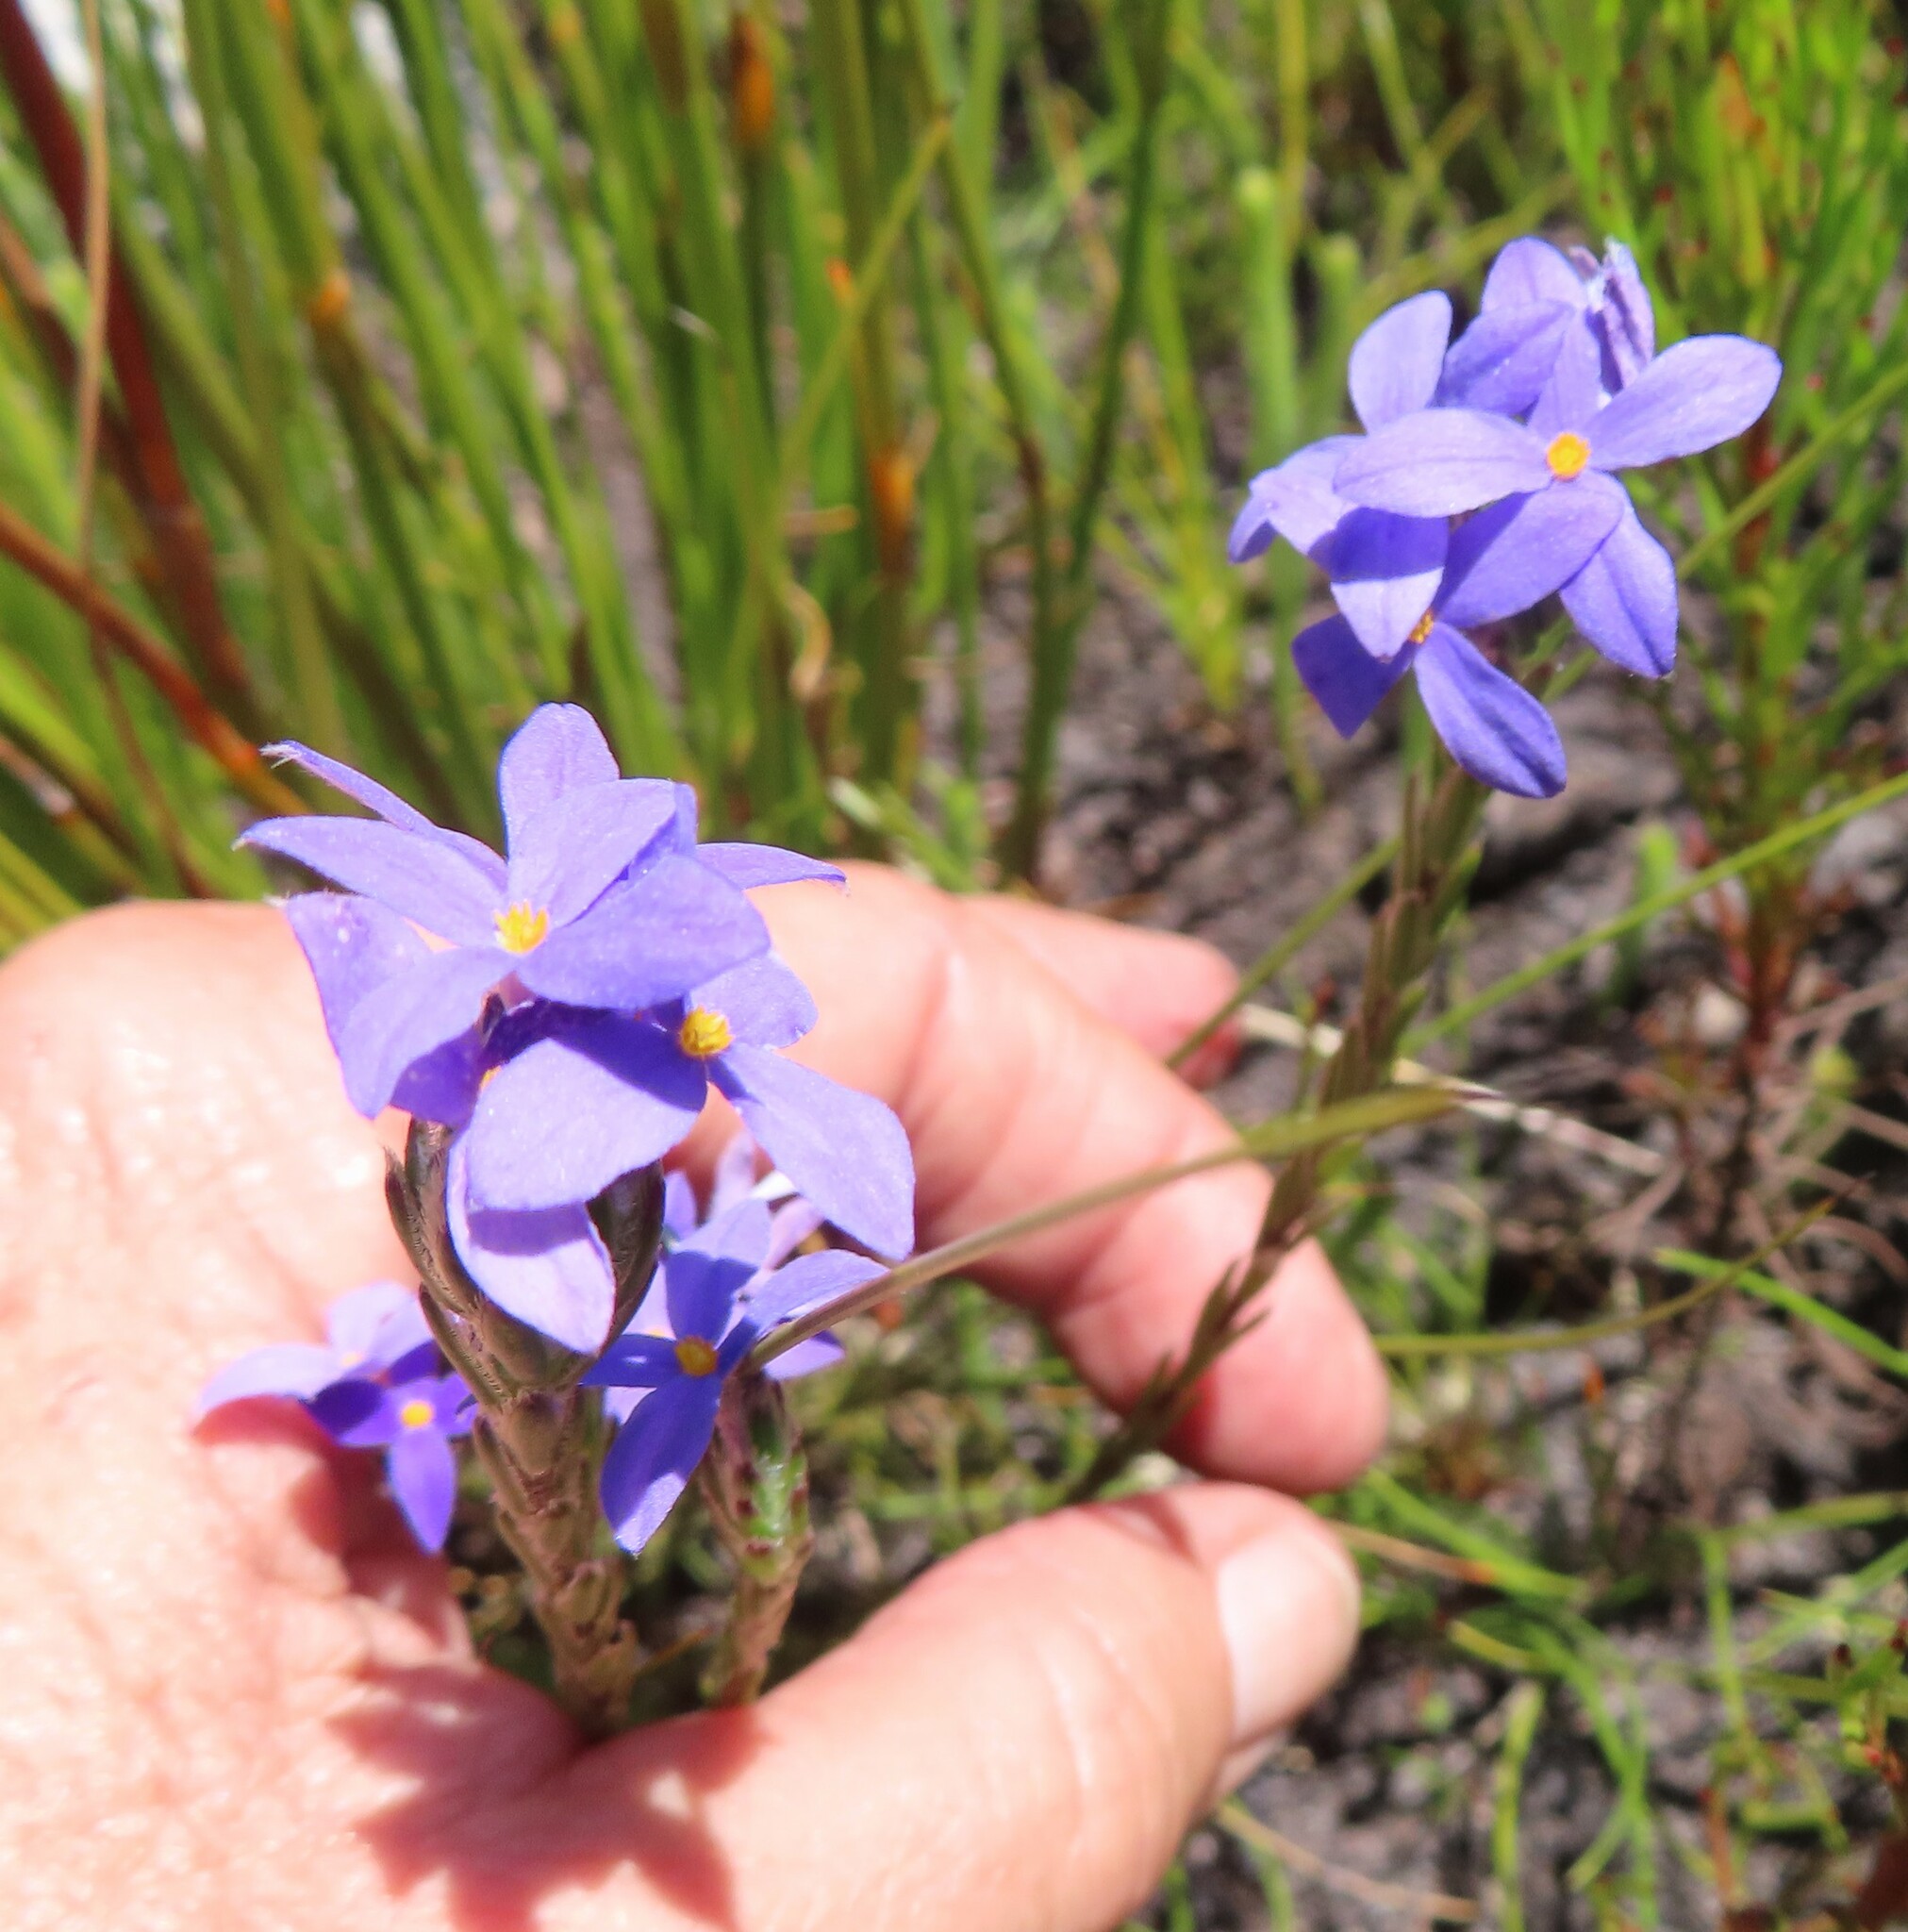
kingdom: Plantae
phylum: Tracheophyta
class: Magnoliopsida
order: Malvales
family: Thymelaeaceae
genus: Gnidia
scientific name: Gnidia penicillata
